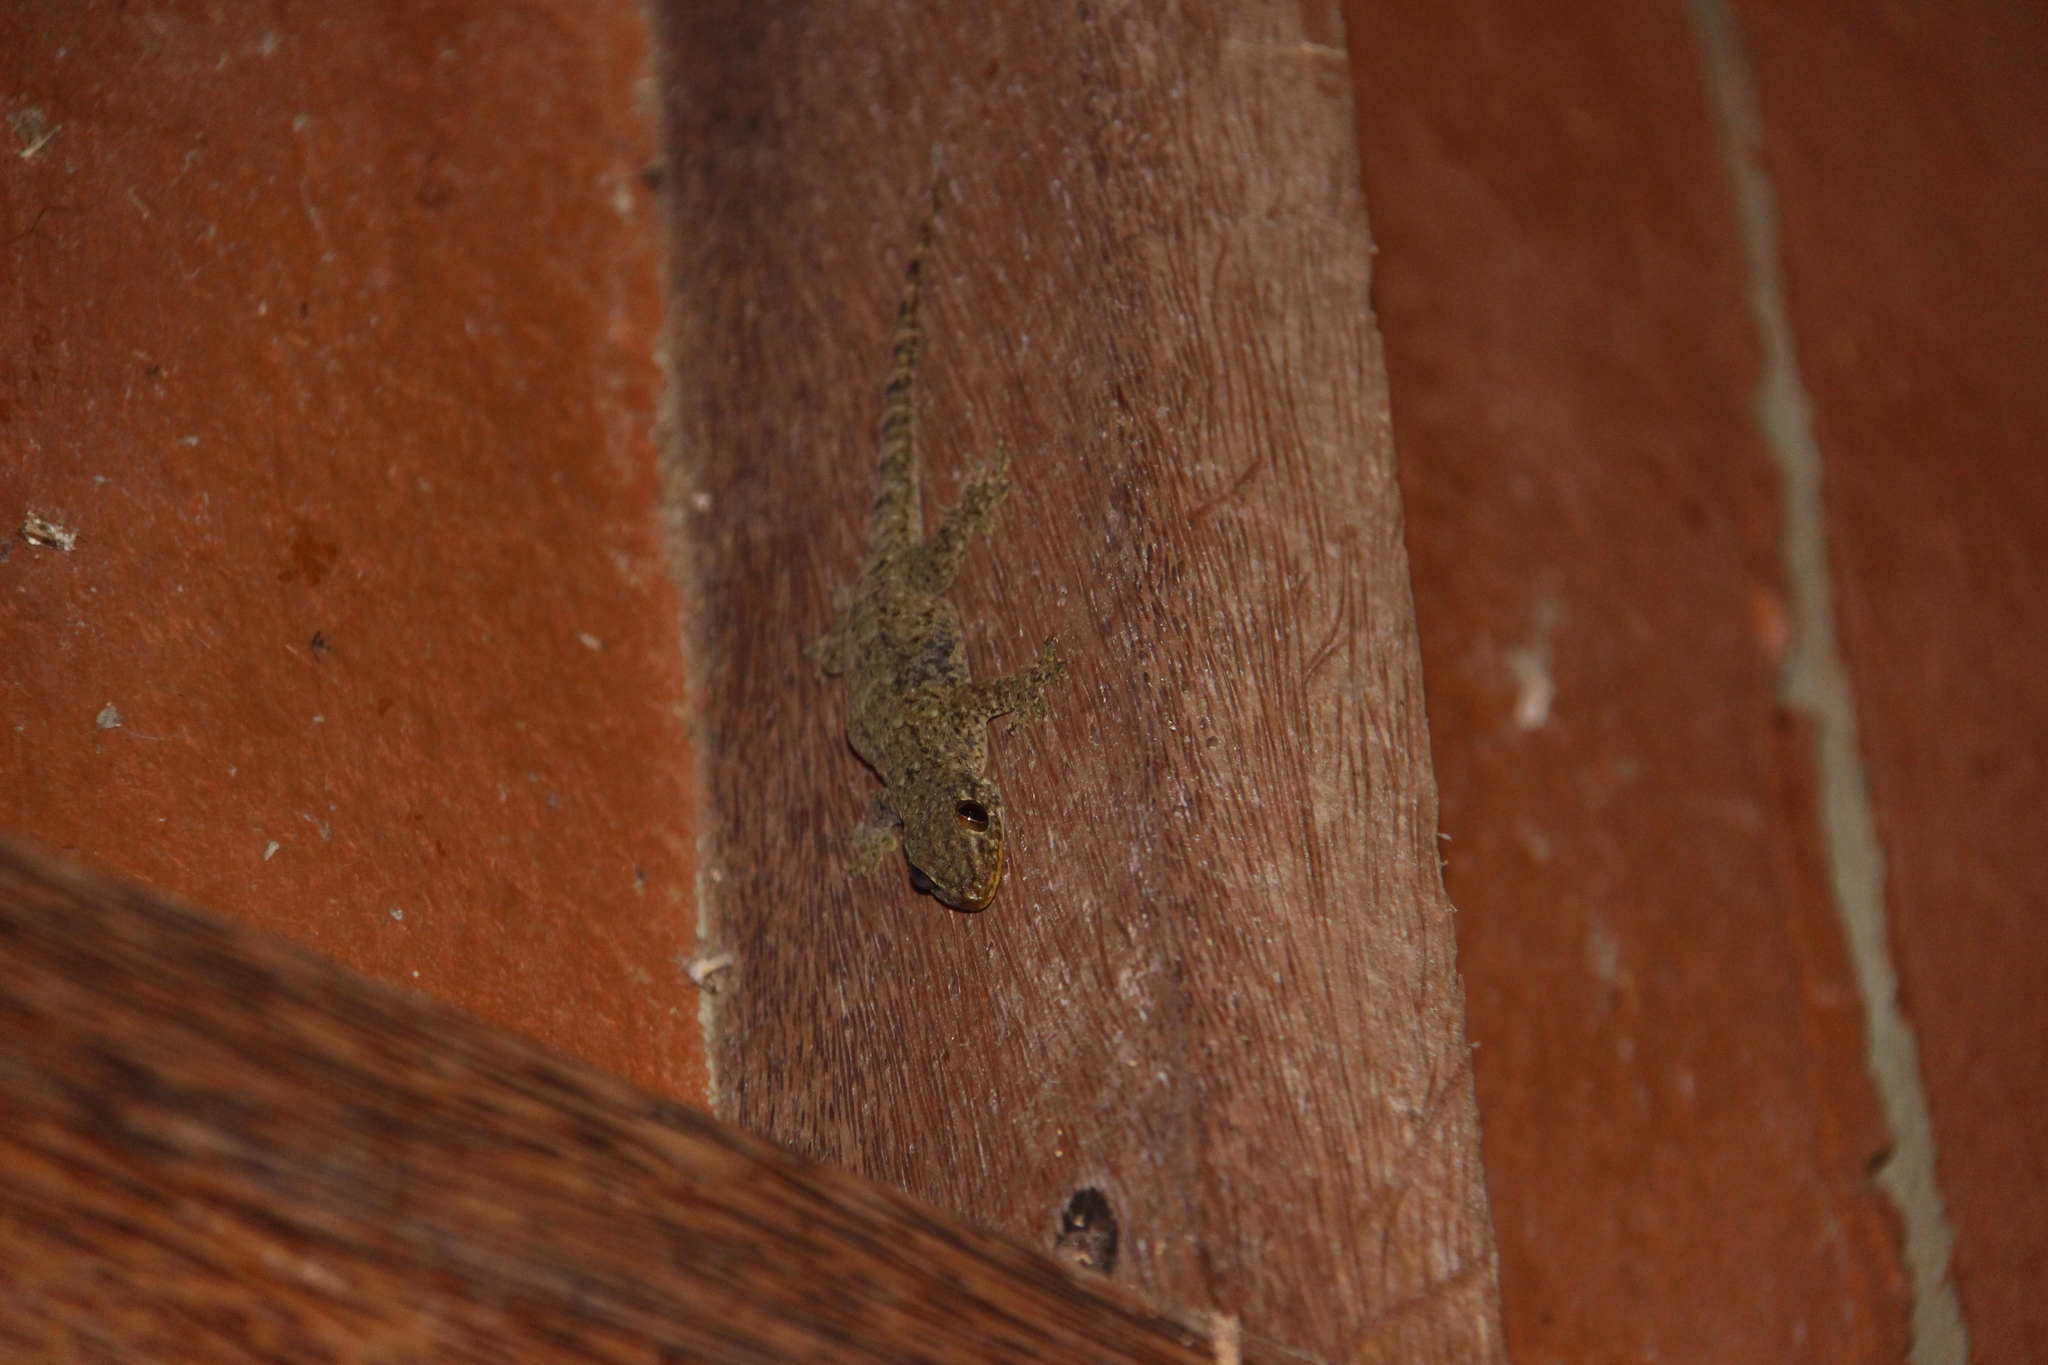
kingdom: Animalia
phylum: Chordata
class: Squamata
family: Gekkonidae
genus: Gehyra
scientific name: Gehyra oceanica
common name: Pacific dtella
